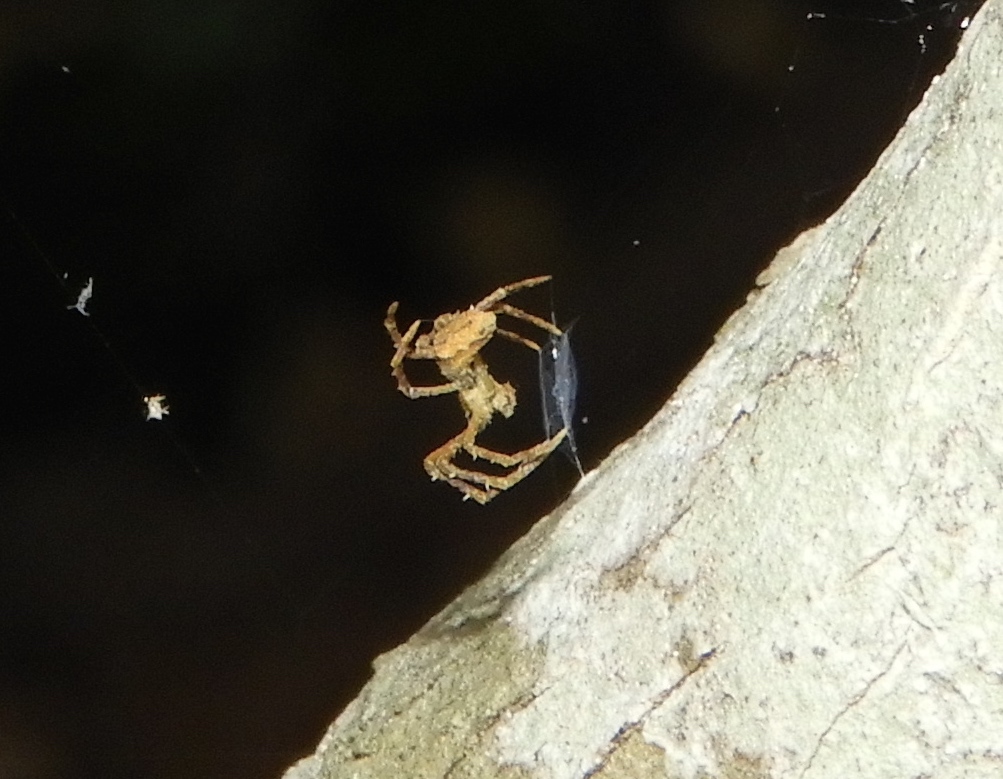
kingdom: Animalia
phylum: Arthropoda
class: Arachnida
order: Araneae
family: Deinopidae
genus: Deinopis
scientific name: Deinopis aurita
